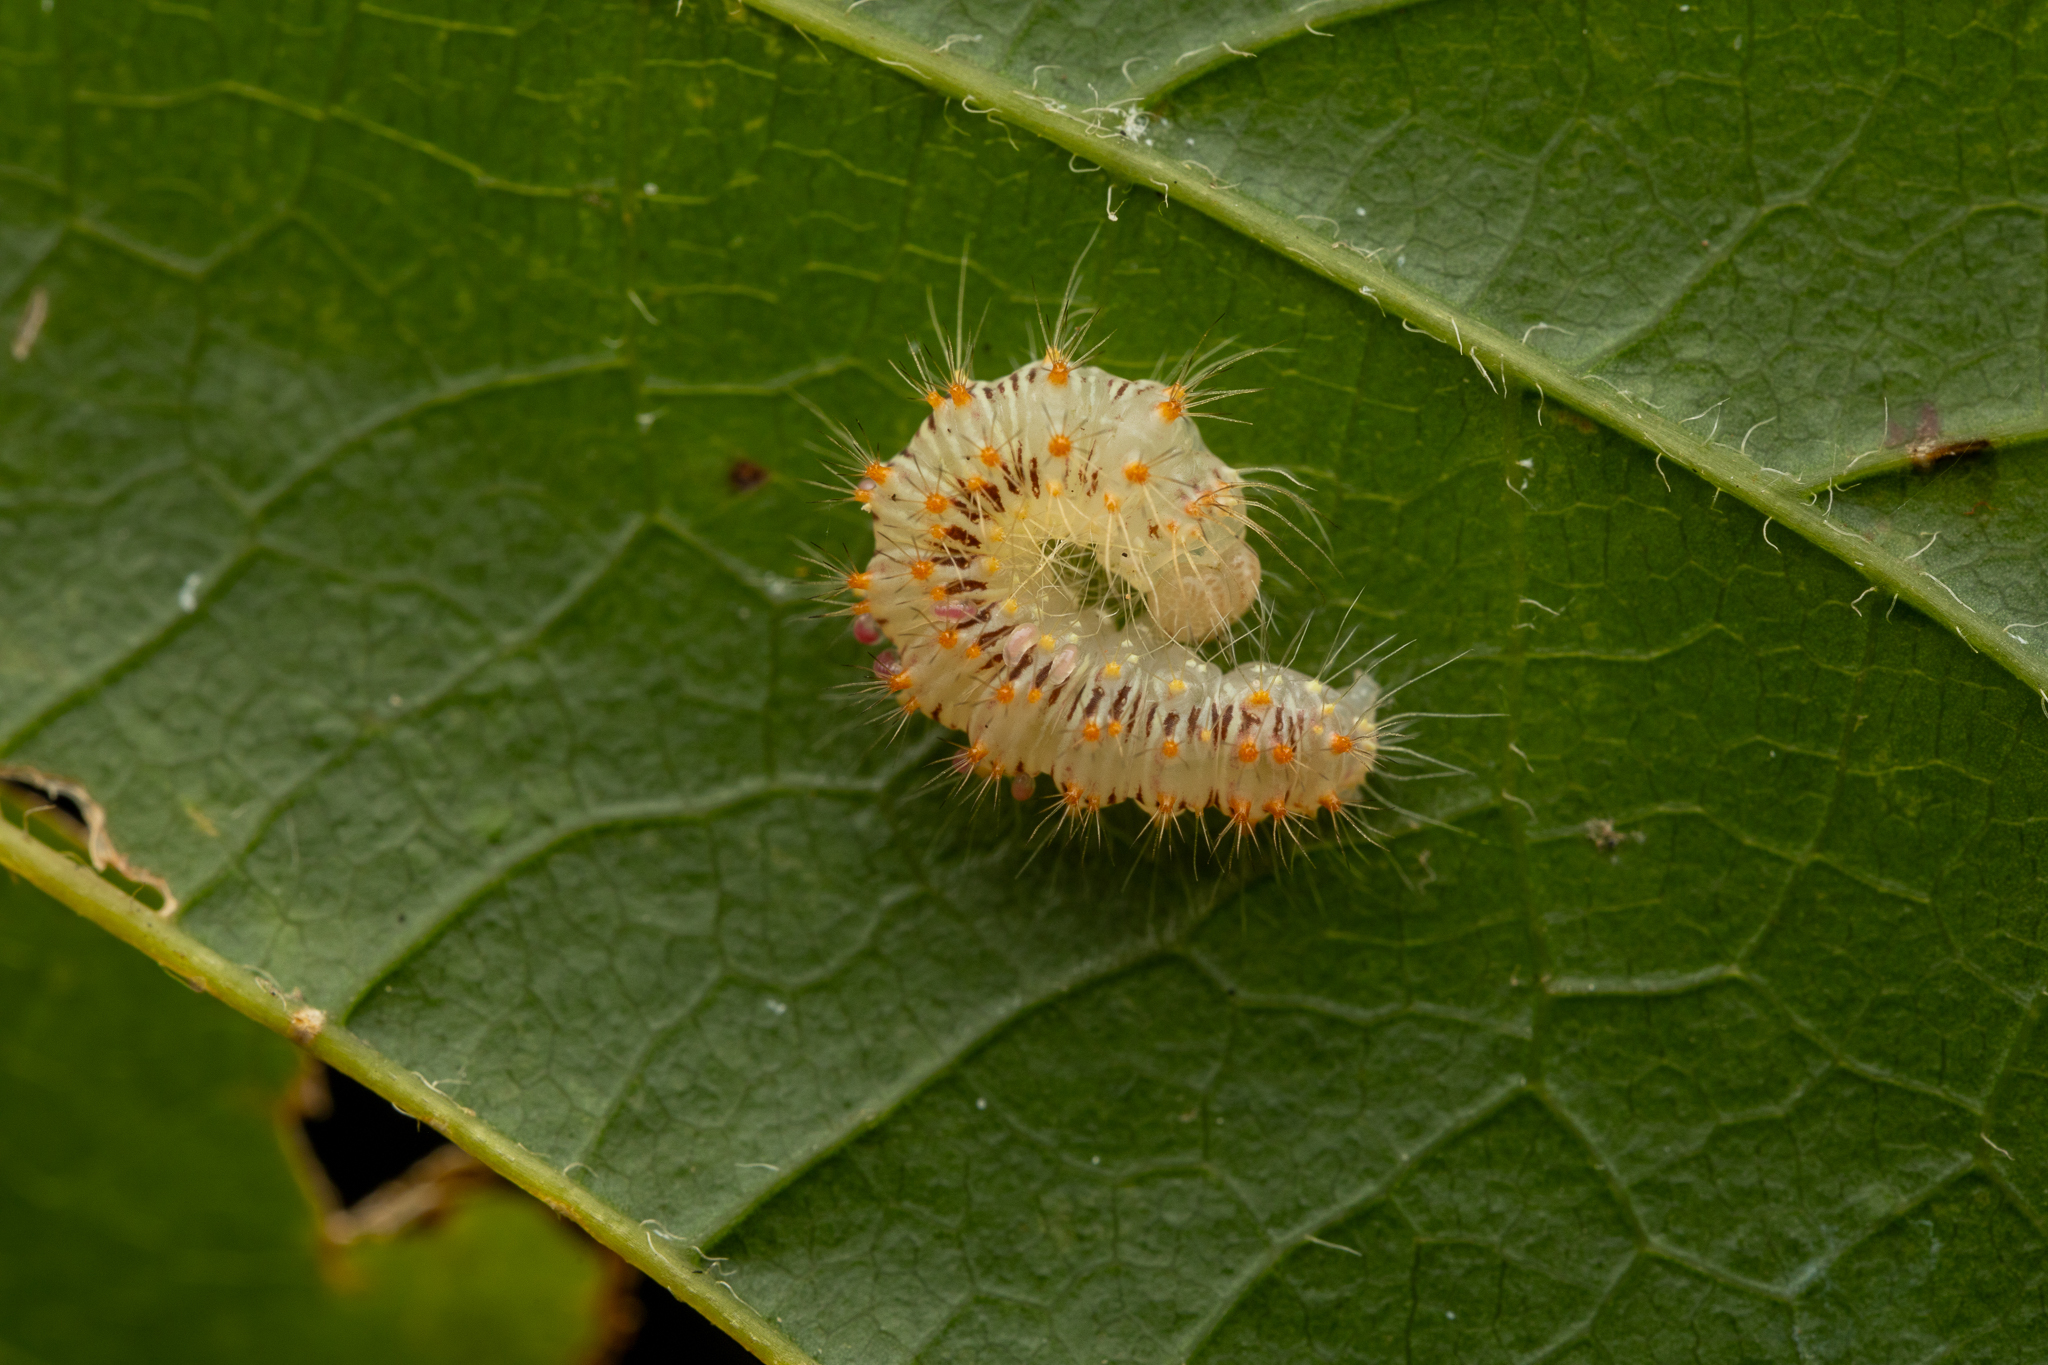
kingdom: Animalia
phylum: Arthropoda
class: Insecta
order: Lepidoptera
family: Noctuidae
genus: Acronicta
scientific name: Acronicta retardata
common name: Maple dagger
